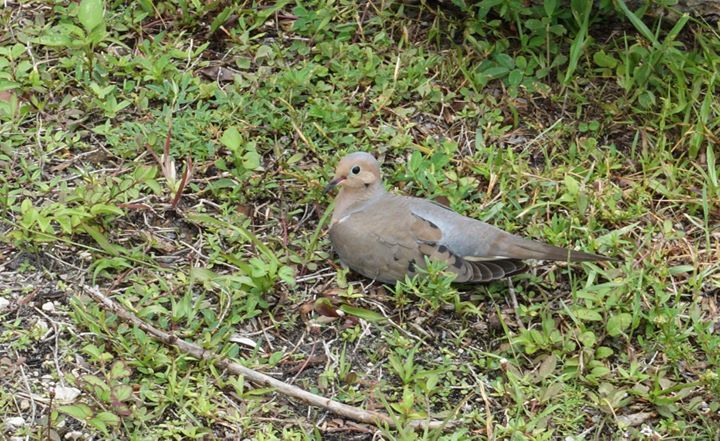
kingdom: Animalia
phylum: Chordata
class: Aves
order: Columbiformes
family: Columbidae
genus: Zenaida
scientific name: Zenaida macroura
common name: Mourning dove
